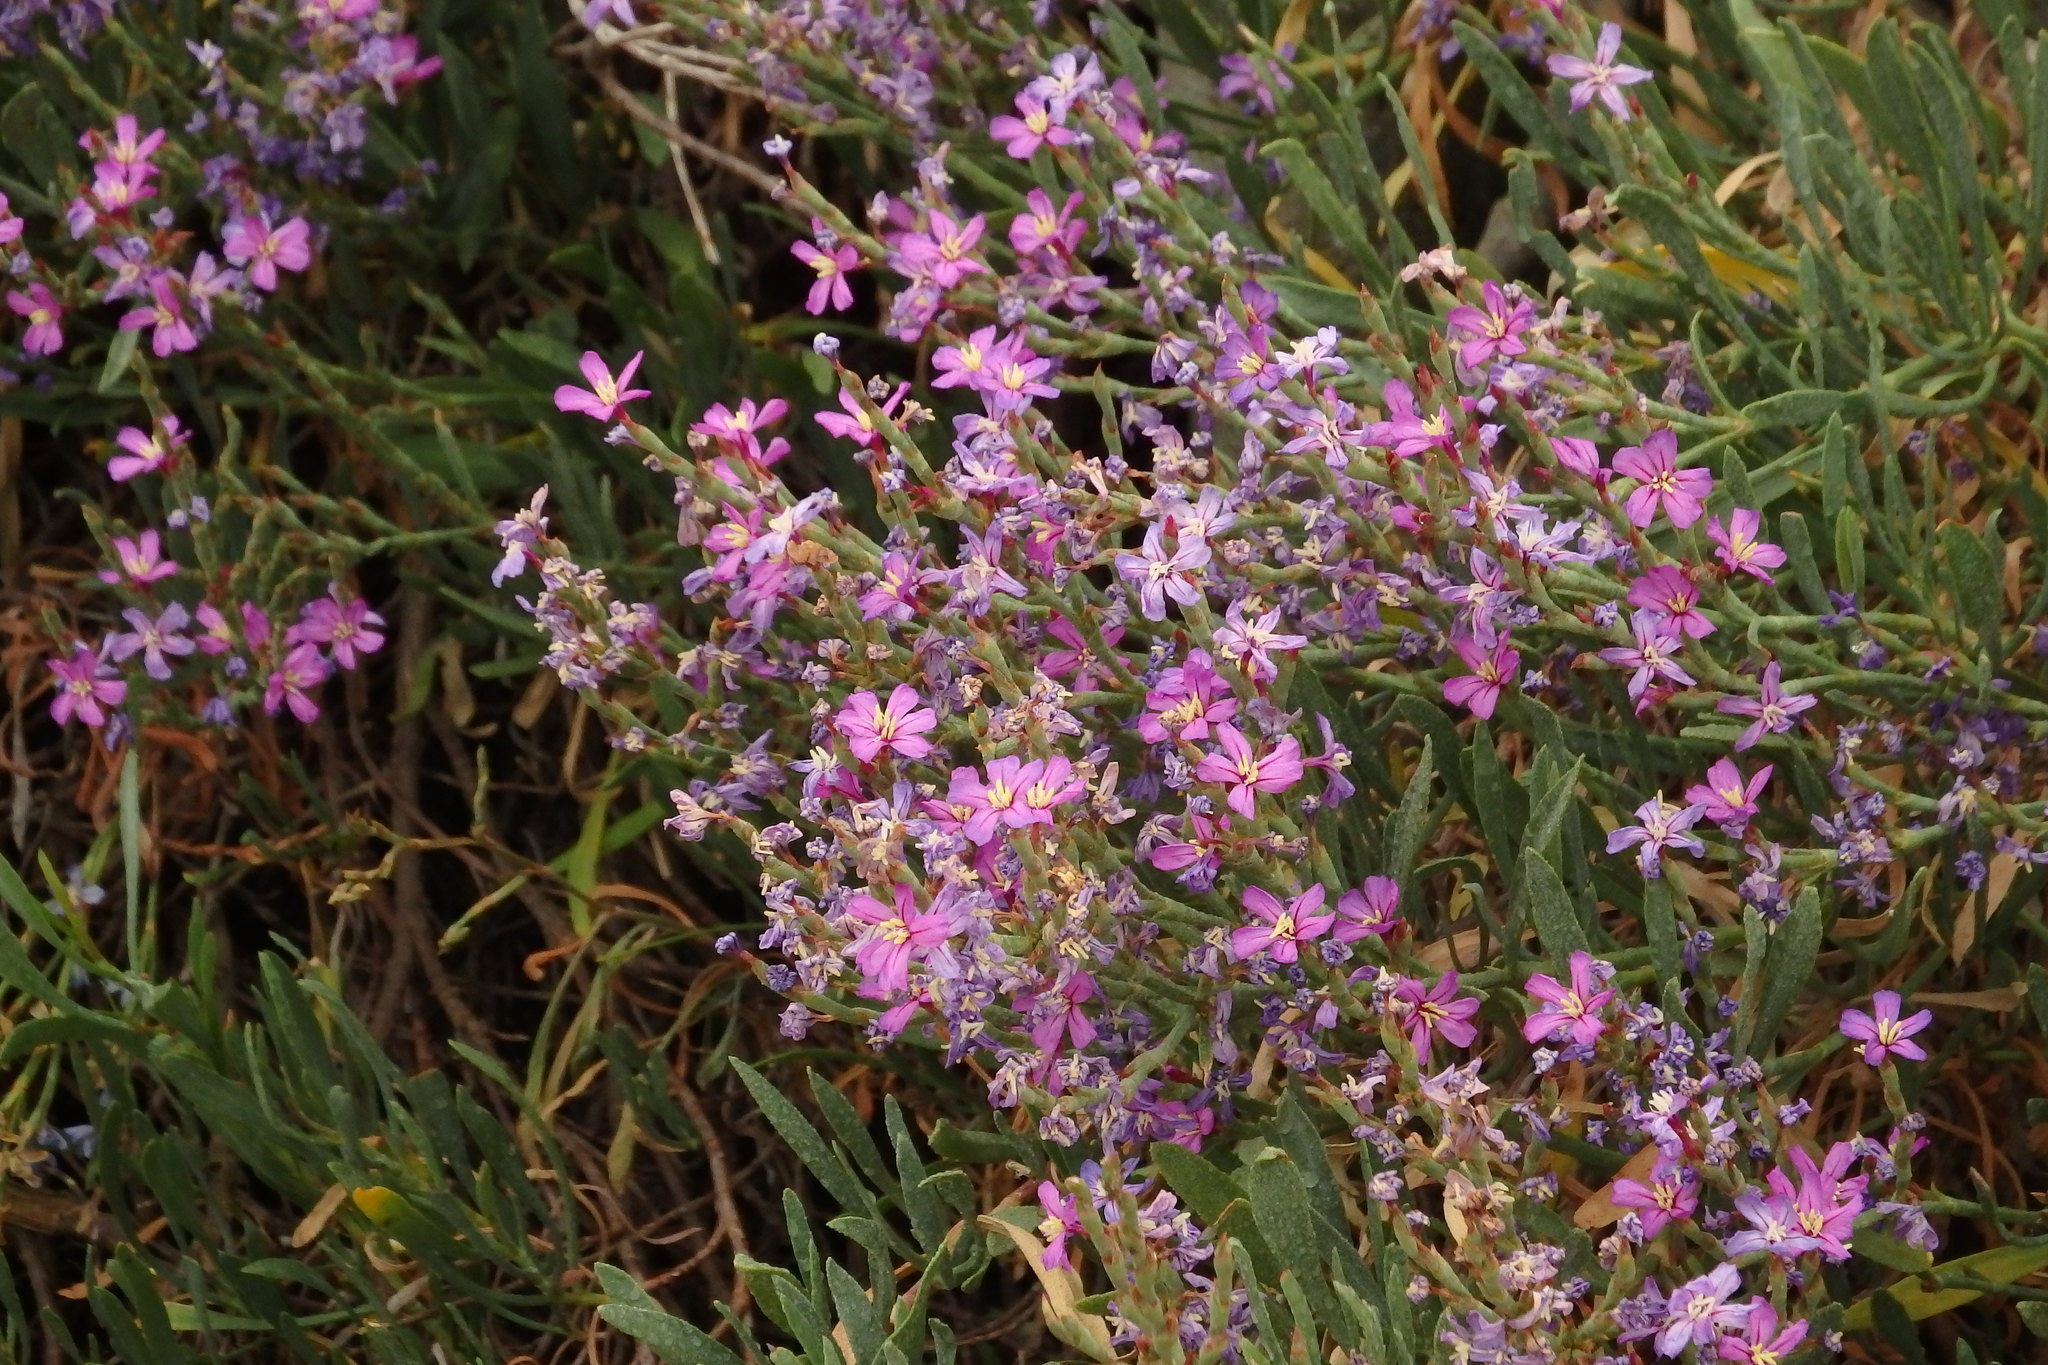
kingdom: Plantae
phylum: Tracheophyta
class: Magnoliopsida
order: Caryophyllales
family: Plumbaginaceae
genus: Limoniastrum
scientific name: Limoniastrum monopetalum
